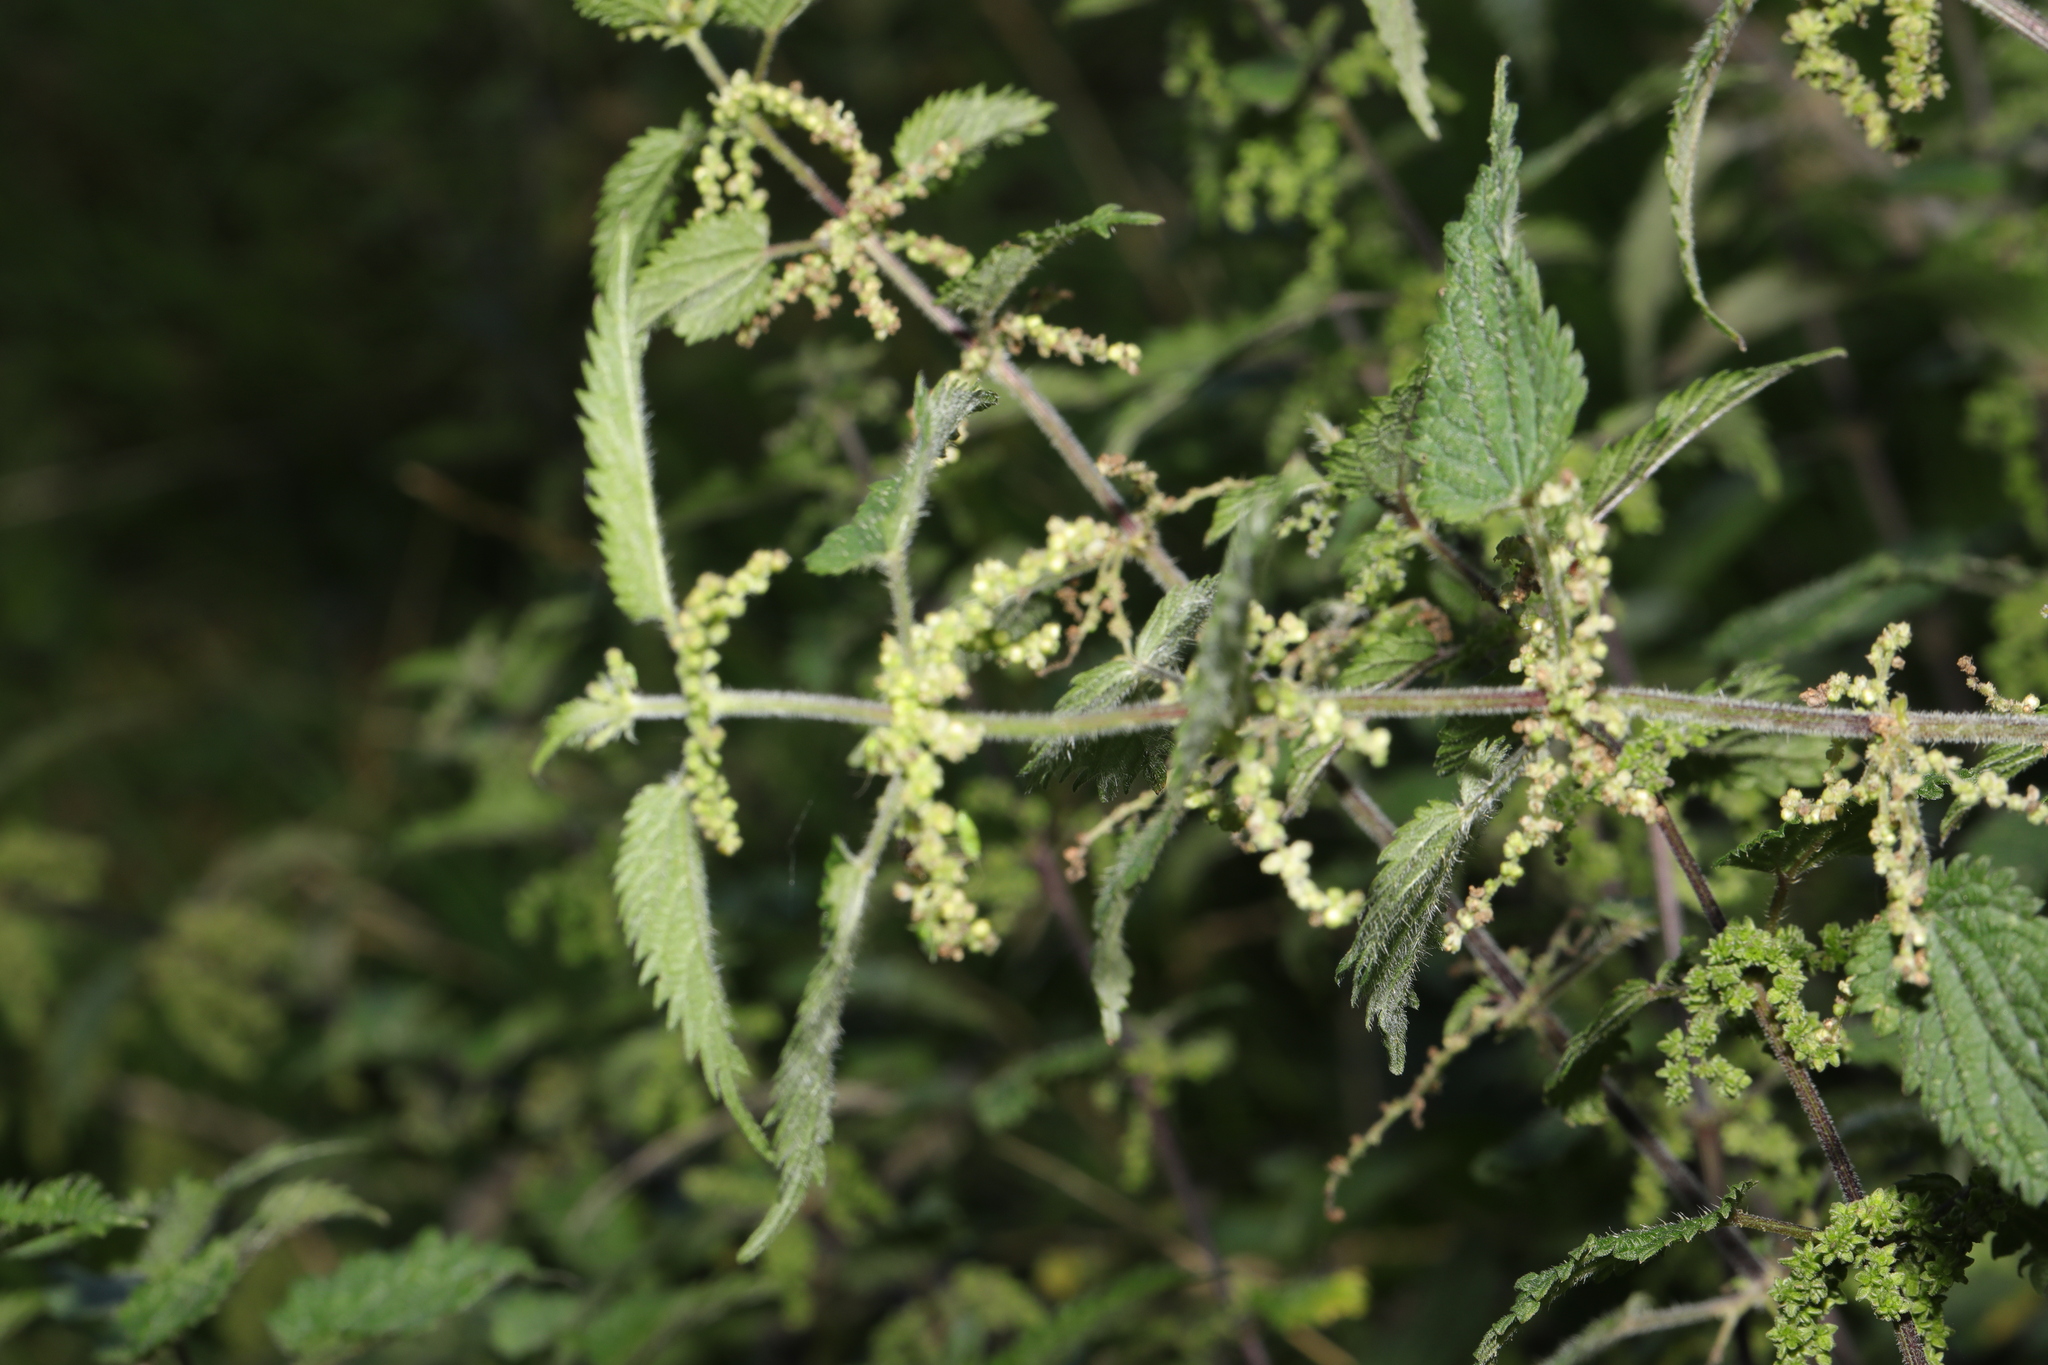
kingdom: Plantae
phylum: Tracheophyta
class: Magnoliopsida
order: Rosales
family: Urticaceae
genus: Urtica
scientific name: Urtica dioica
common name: Common nettle
